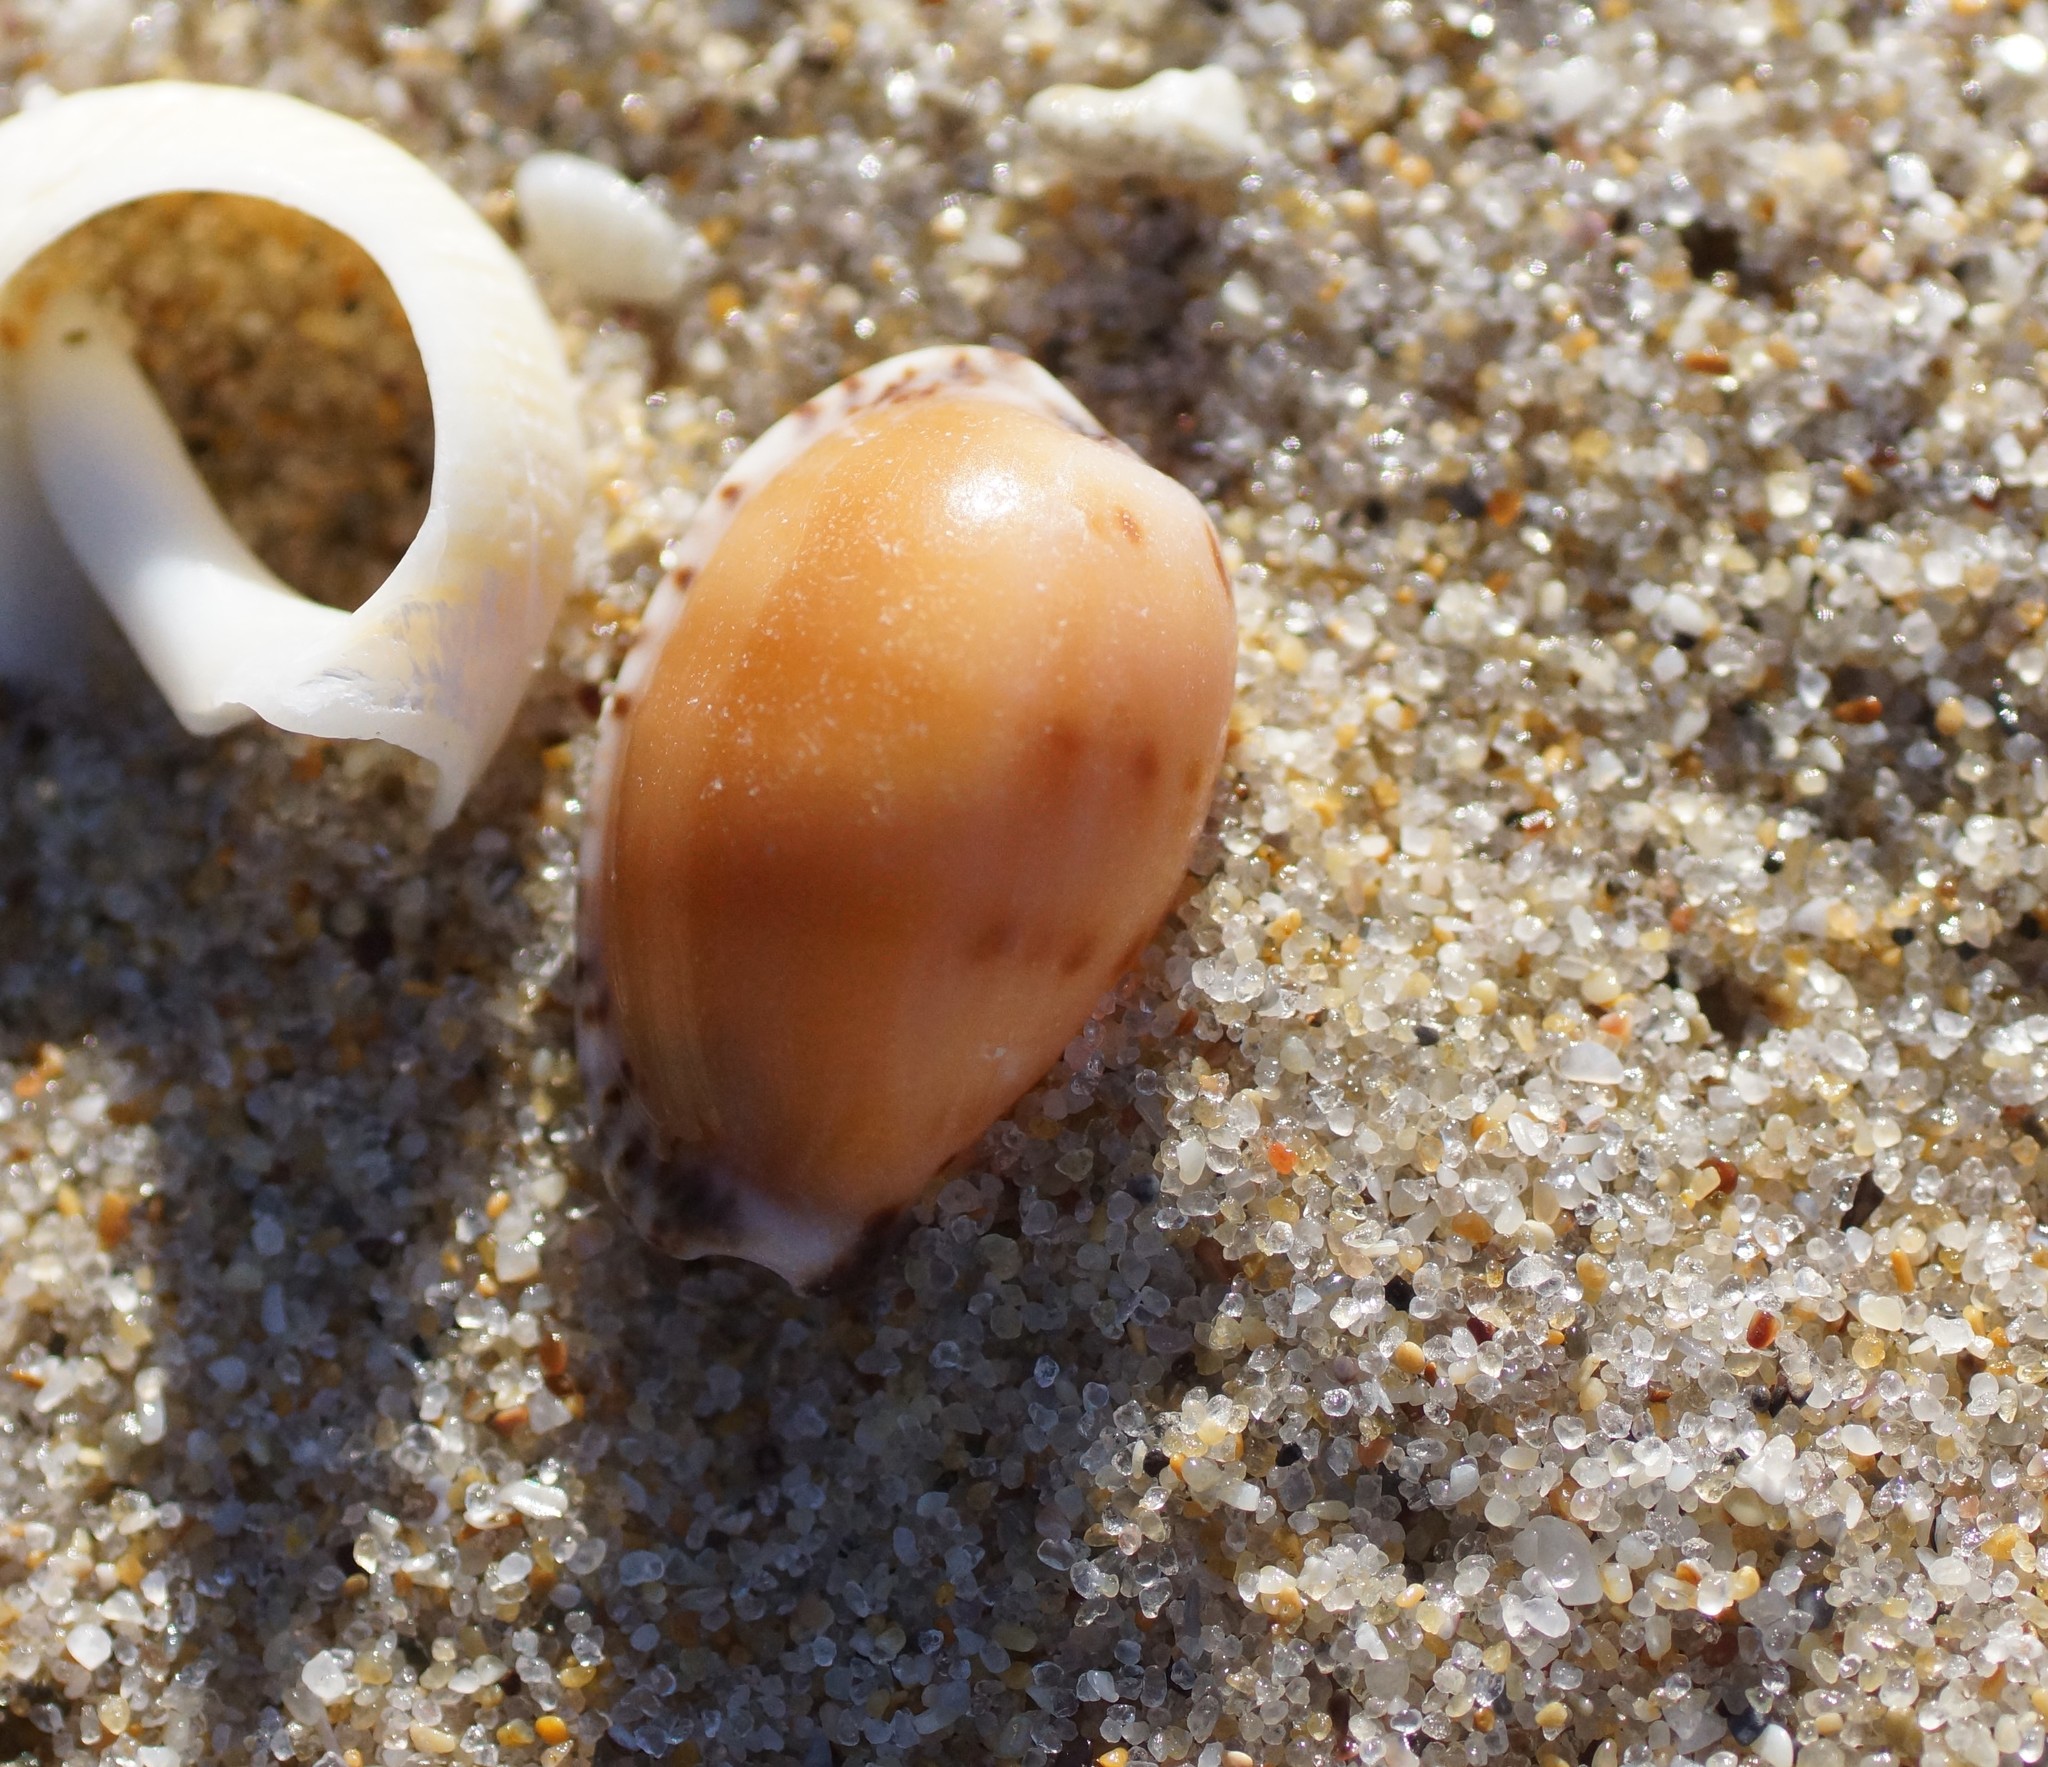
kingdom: Animalia
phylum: Mollusca
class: Gastropoda
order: Littorinimorpha
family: Cypraeidae
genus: Notocypraea
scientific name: Notocypraea comptonii
